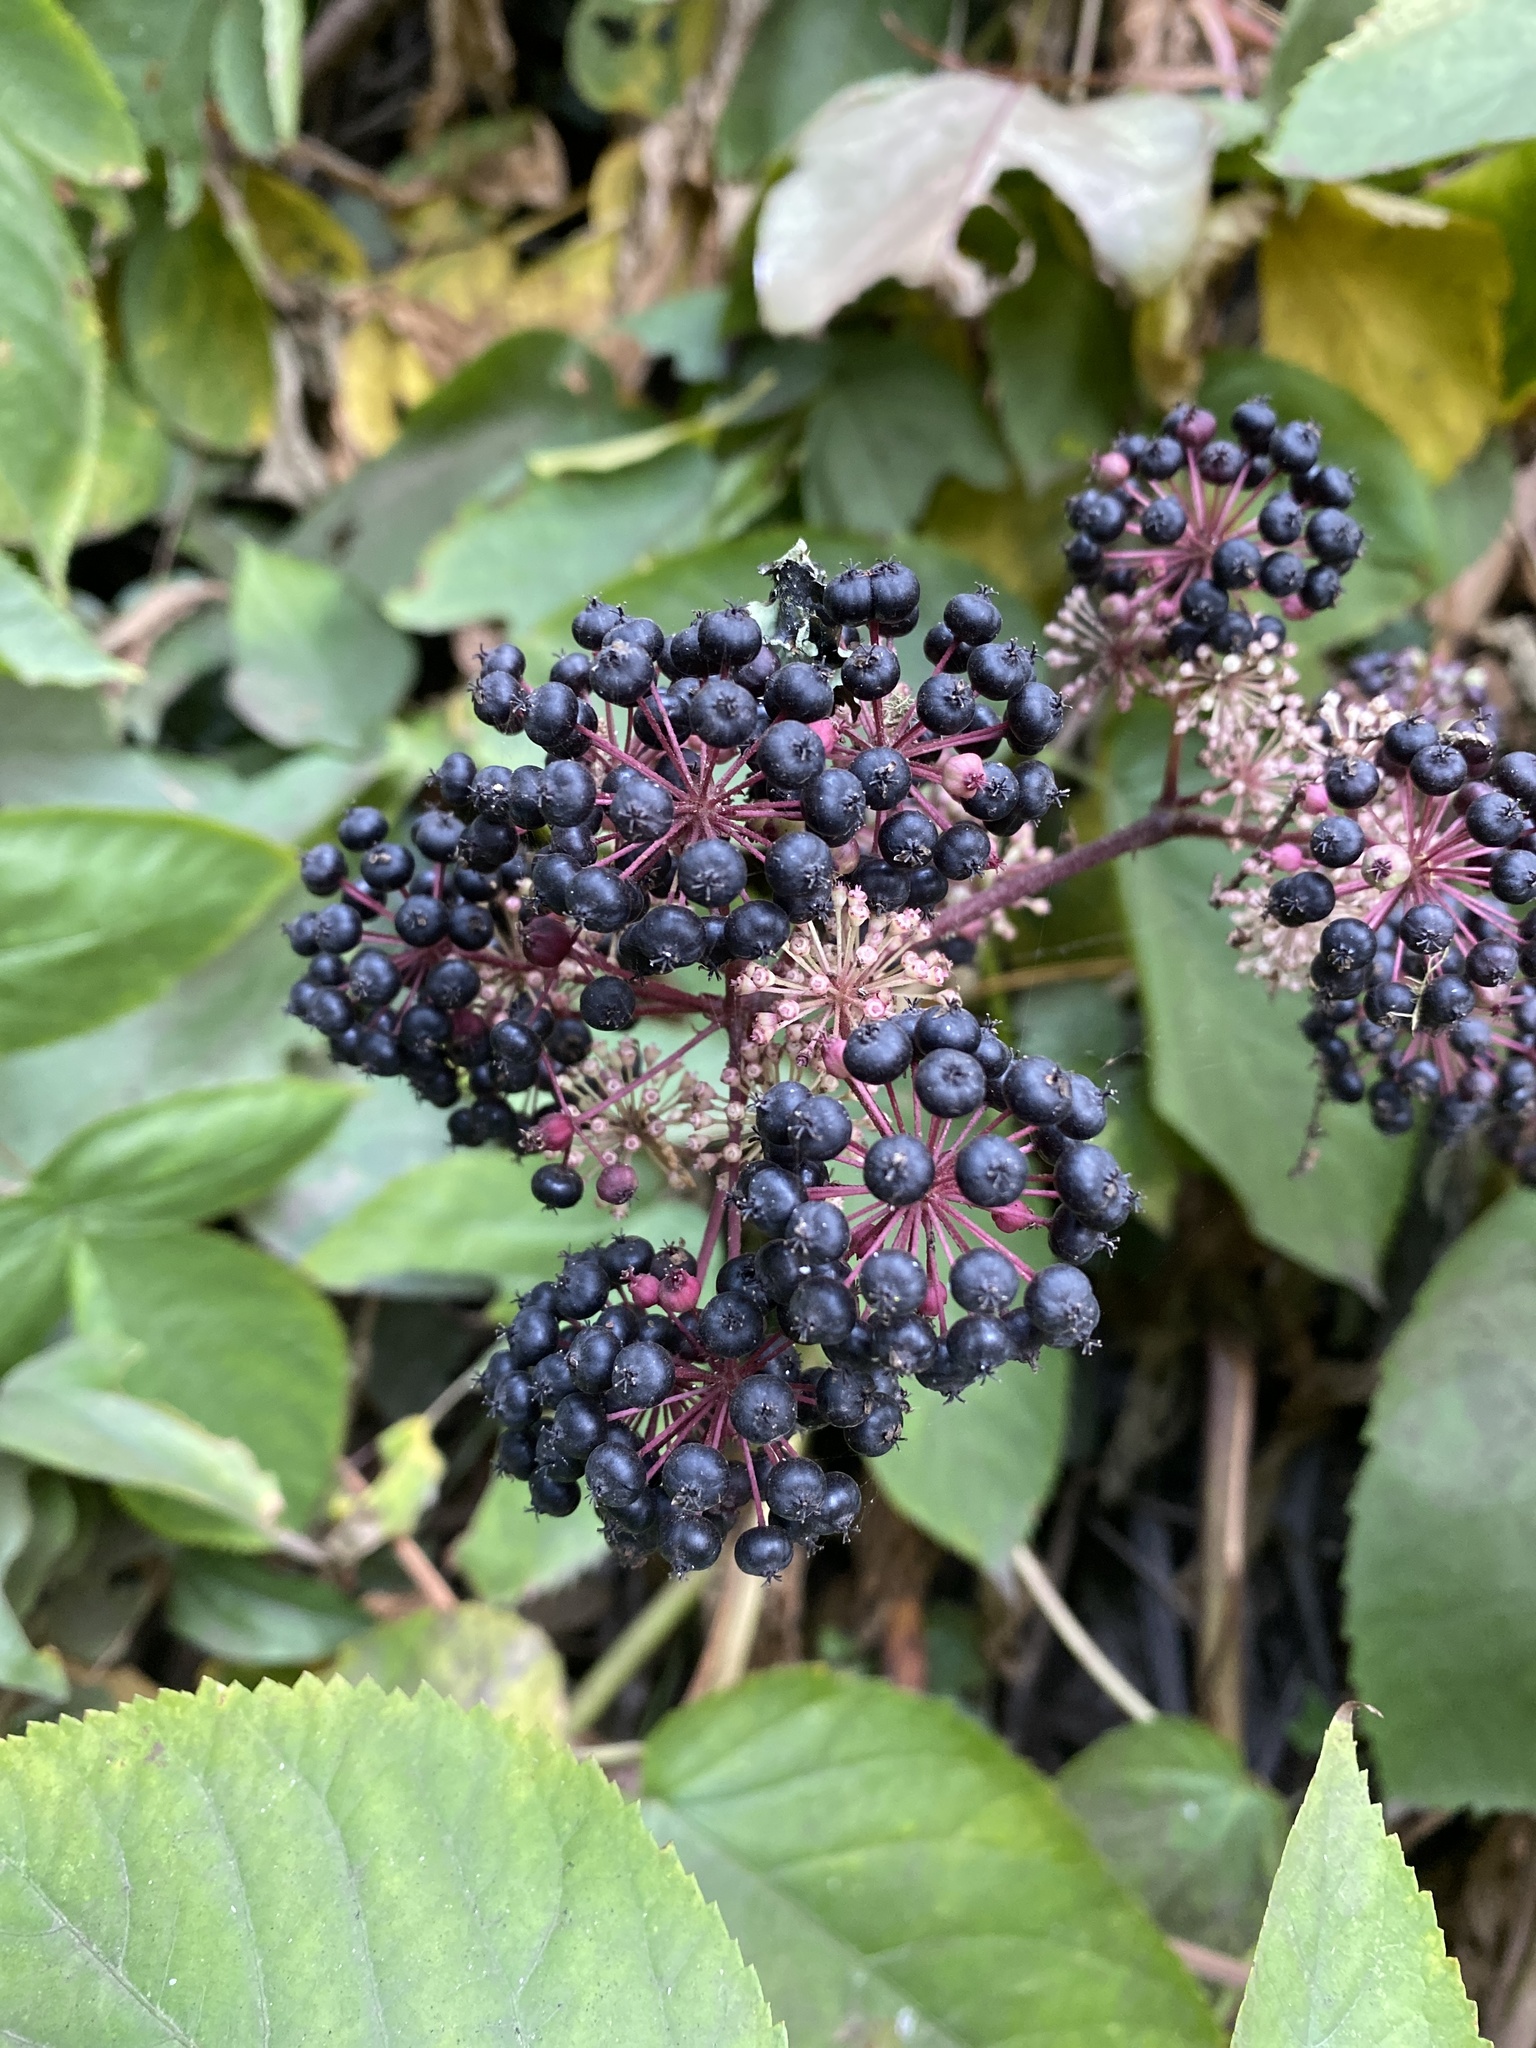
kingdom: Plantae
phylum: Tracheophyta
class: Magnoliopsida
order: Apiales
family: Araliaceae
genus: Aralia
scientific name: Aralia californica
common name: California-ginseng
